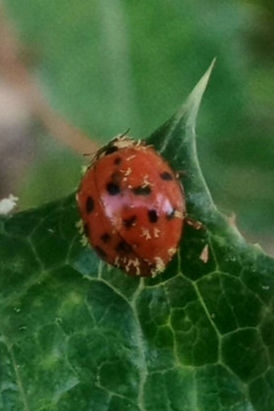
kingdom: Animalia
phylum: Arthropoda
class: Insecta
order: Coleoptera
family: Coccinellidae
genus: Harmonia
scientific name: Harmonia axyridis
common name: Harlequin ladybird
